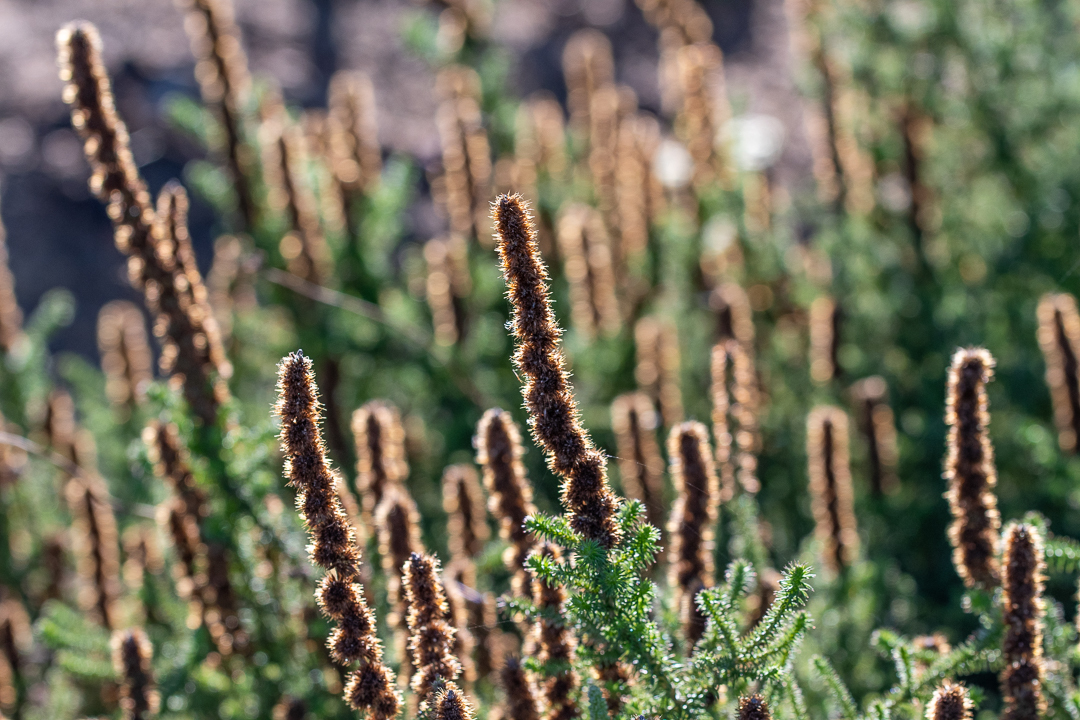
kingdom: Plantae
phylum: Tracheophyta
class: Magnoliopsida
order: Asterales
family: Asteraceae
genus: Seriphium
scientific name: Seriphium plumosum
